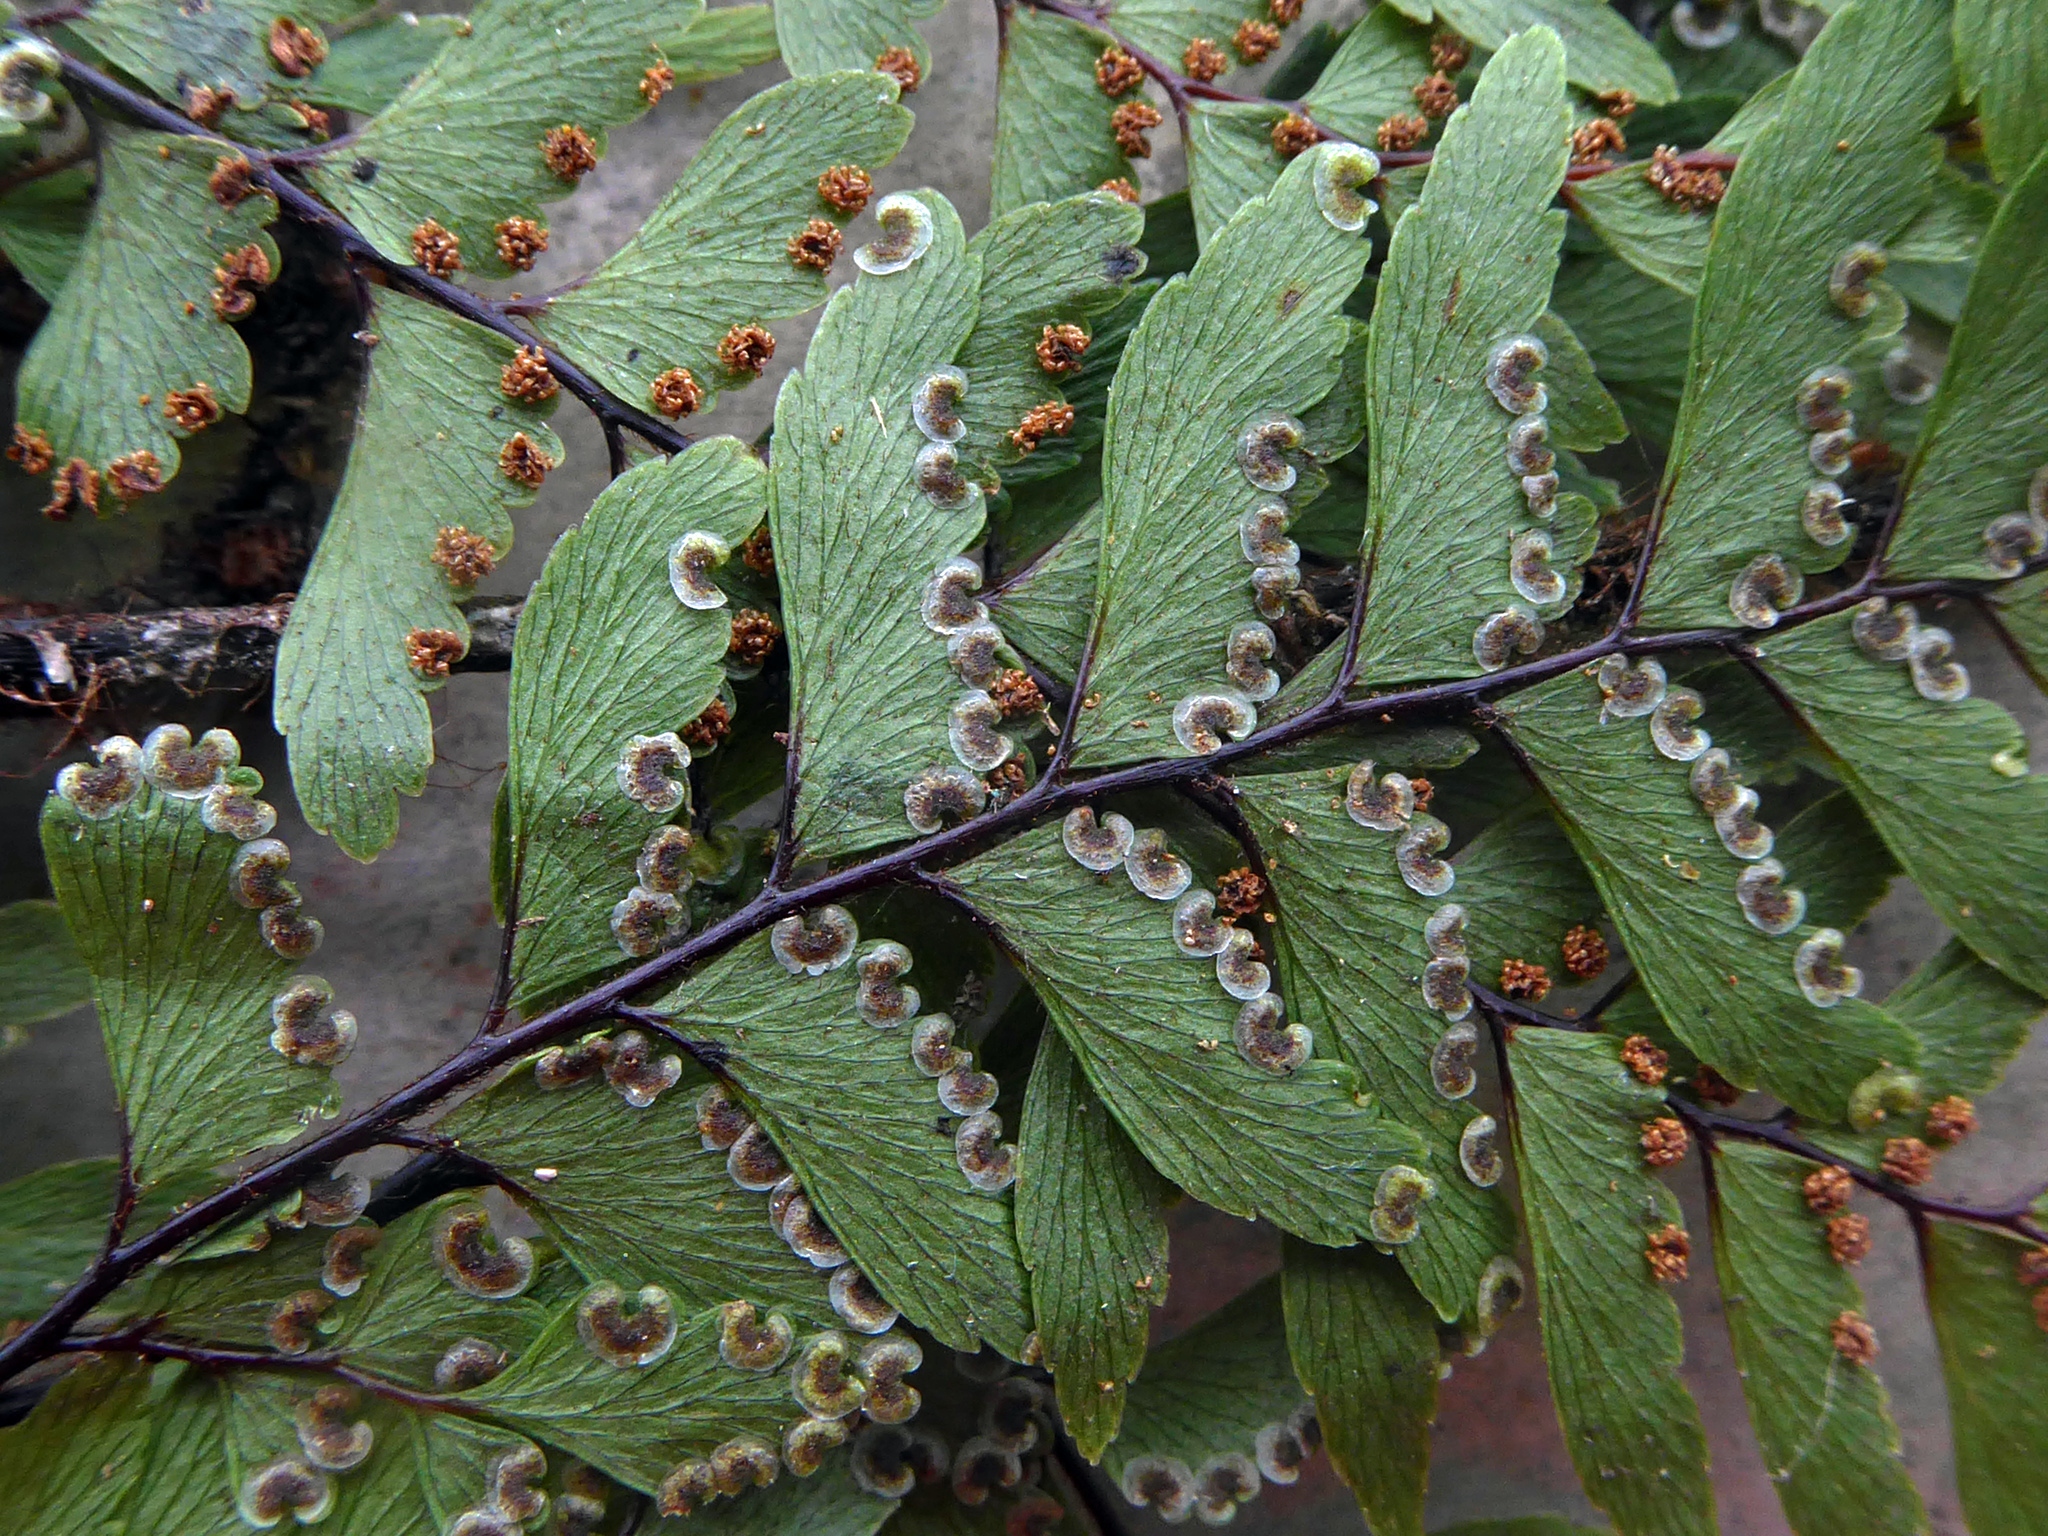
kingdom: Plantae
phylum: Tracheophyta
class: Polypodiopsida
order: Polypodiales
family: Pteridaceae
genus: Adiantum
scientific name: Adiantum fulvum
